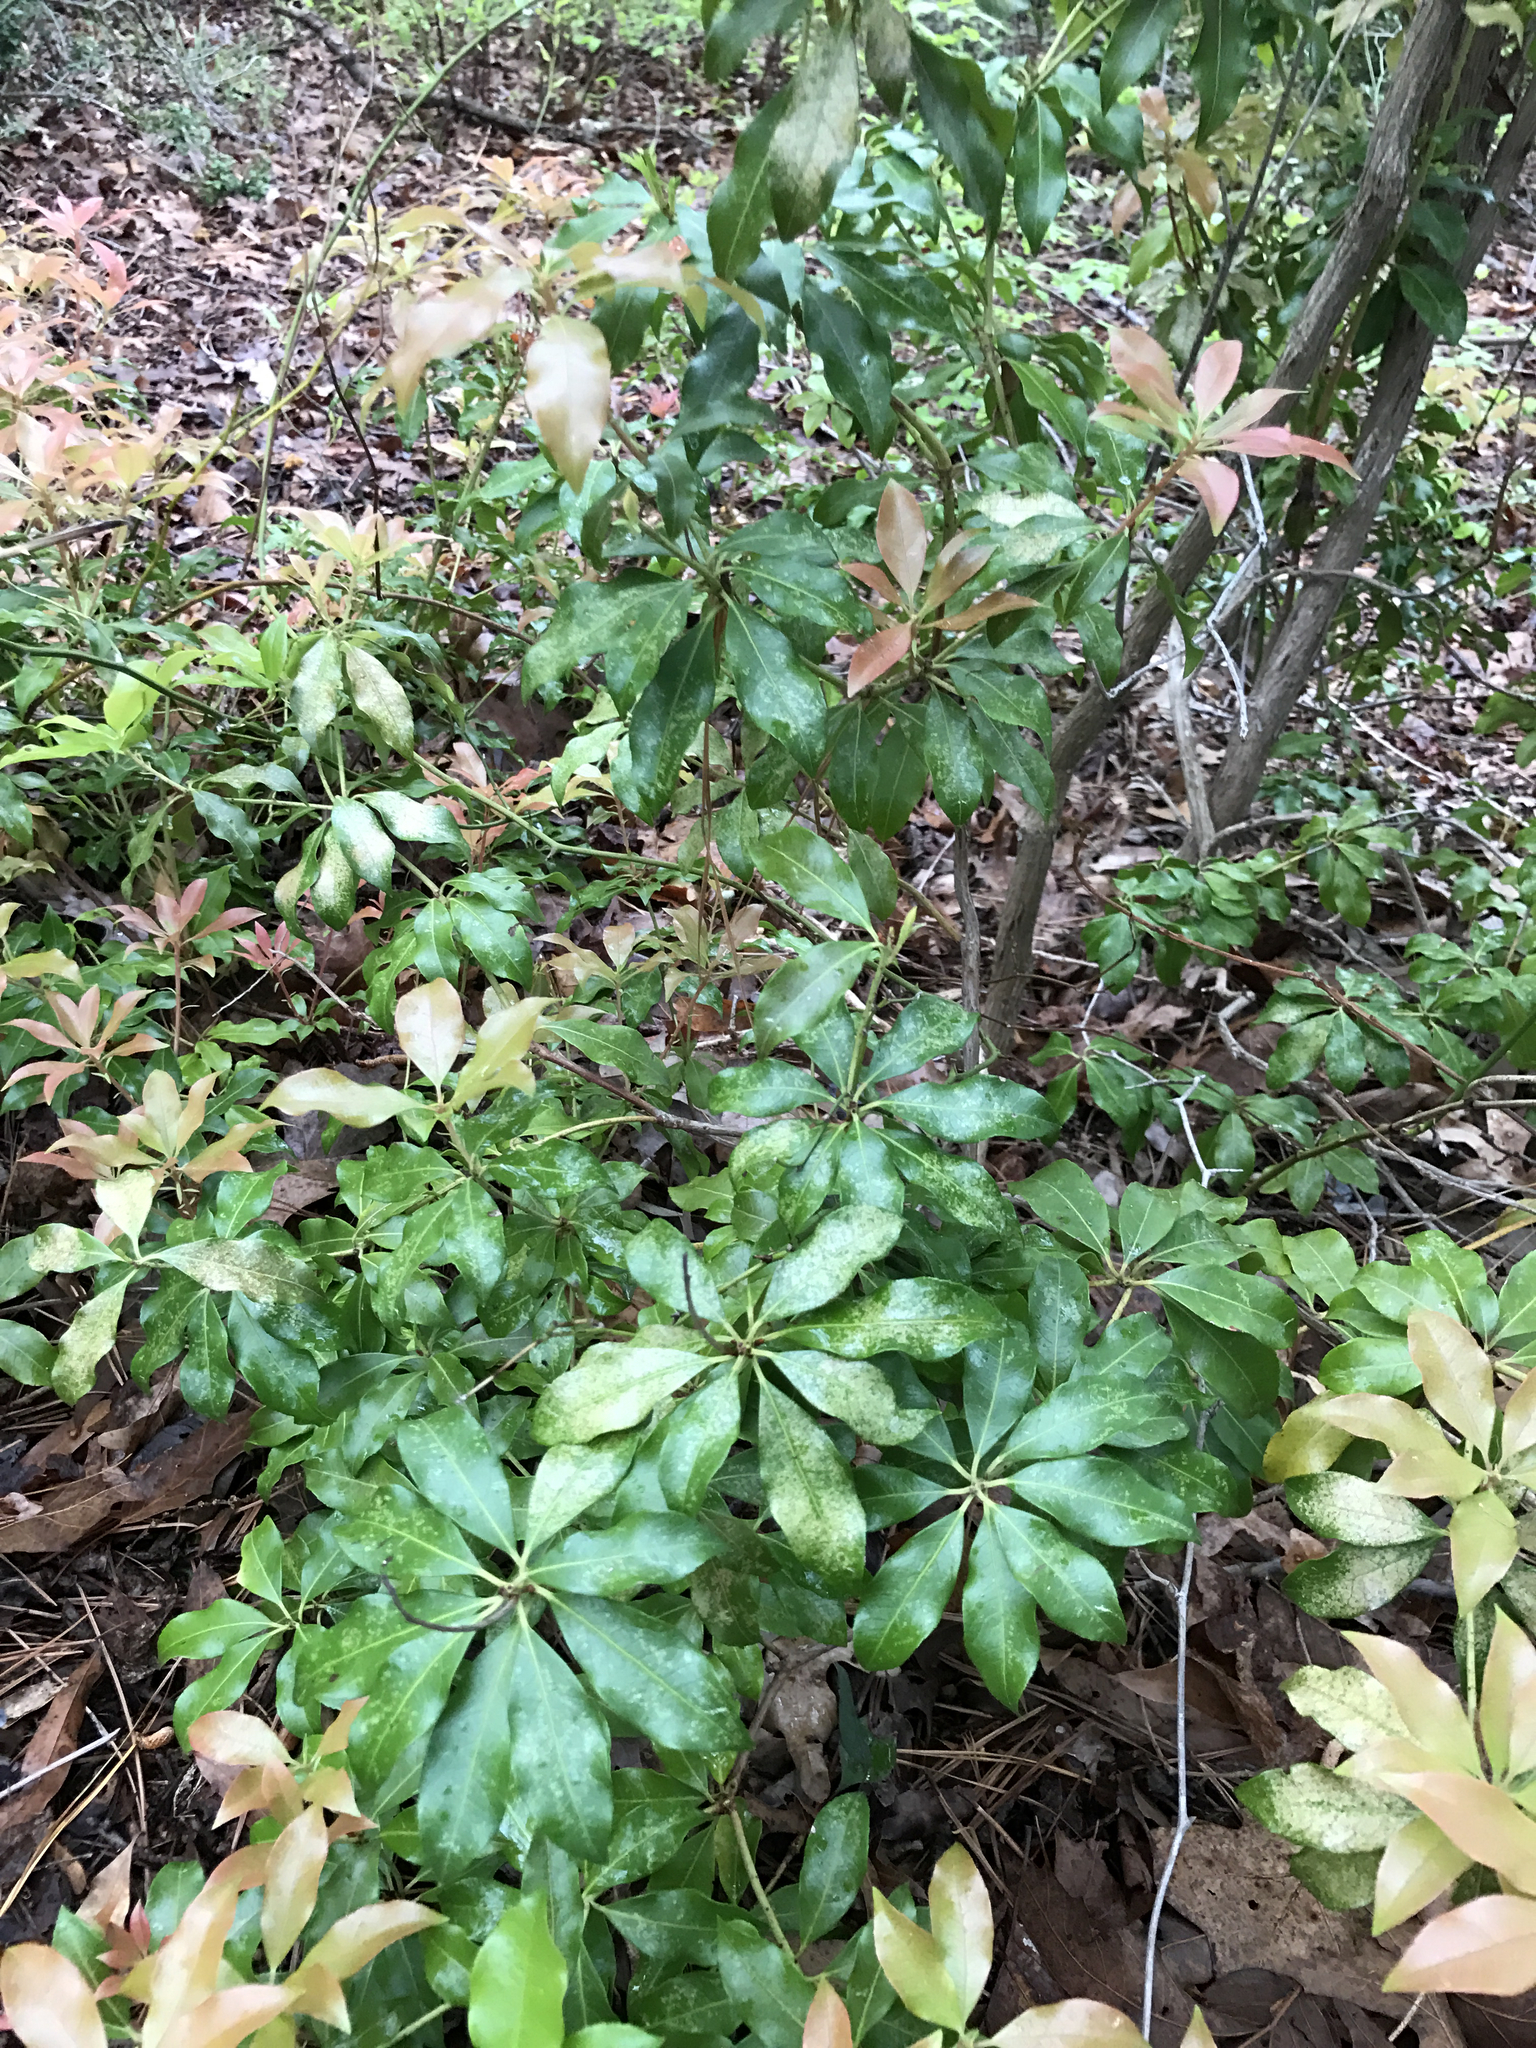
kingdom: Plantae
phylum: Tracheophyta
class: Magnoliopsida
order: Ericales
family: Ericaceae
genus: Pieris
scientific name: Pieris japonica
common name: Japanese pieris
